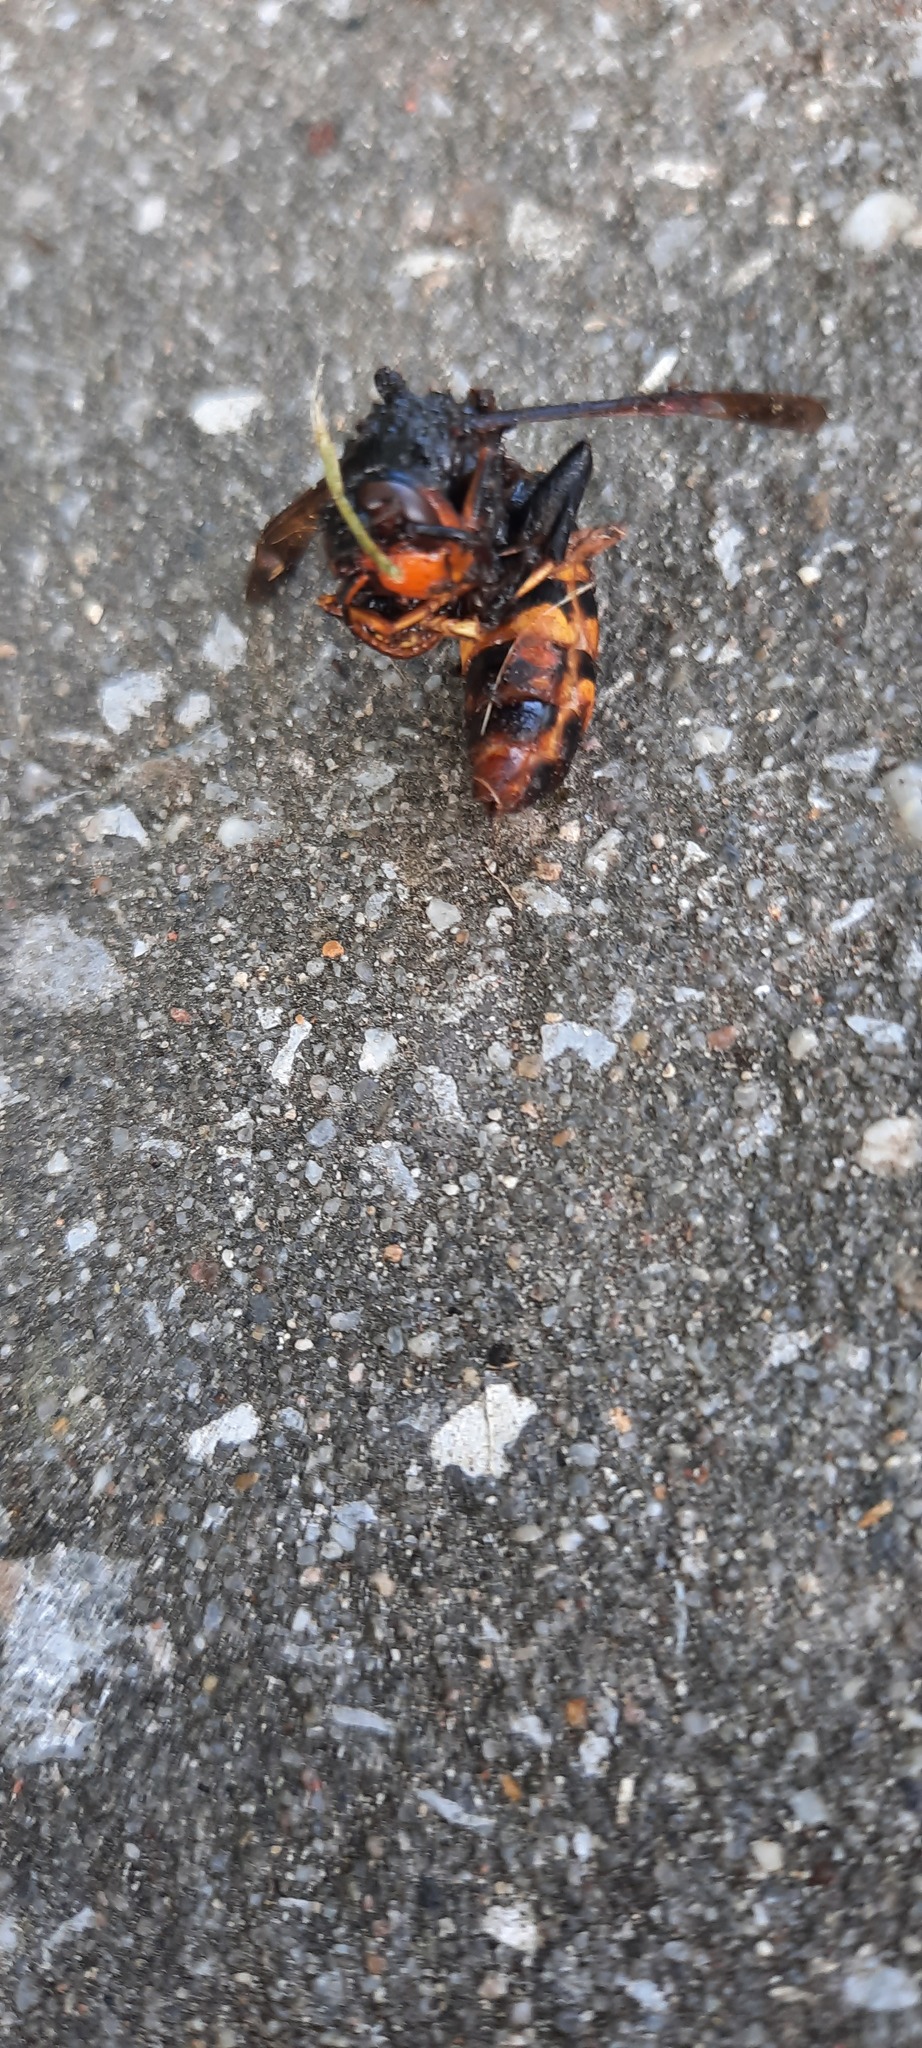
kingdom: Animalia
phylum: Arthropoda
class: Insecta
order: Hymenoptera
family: Vespidae
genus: Vespa
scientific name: Vespa velutina
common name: Asian hornet
